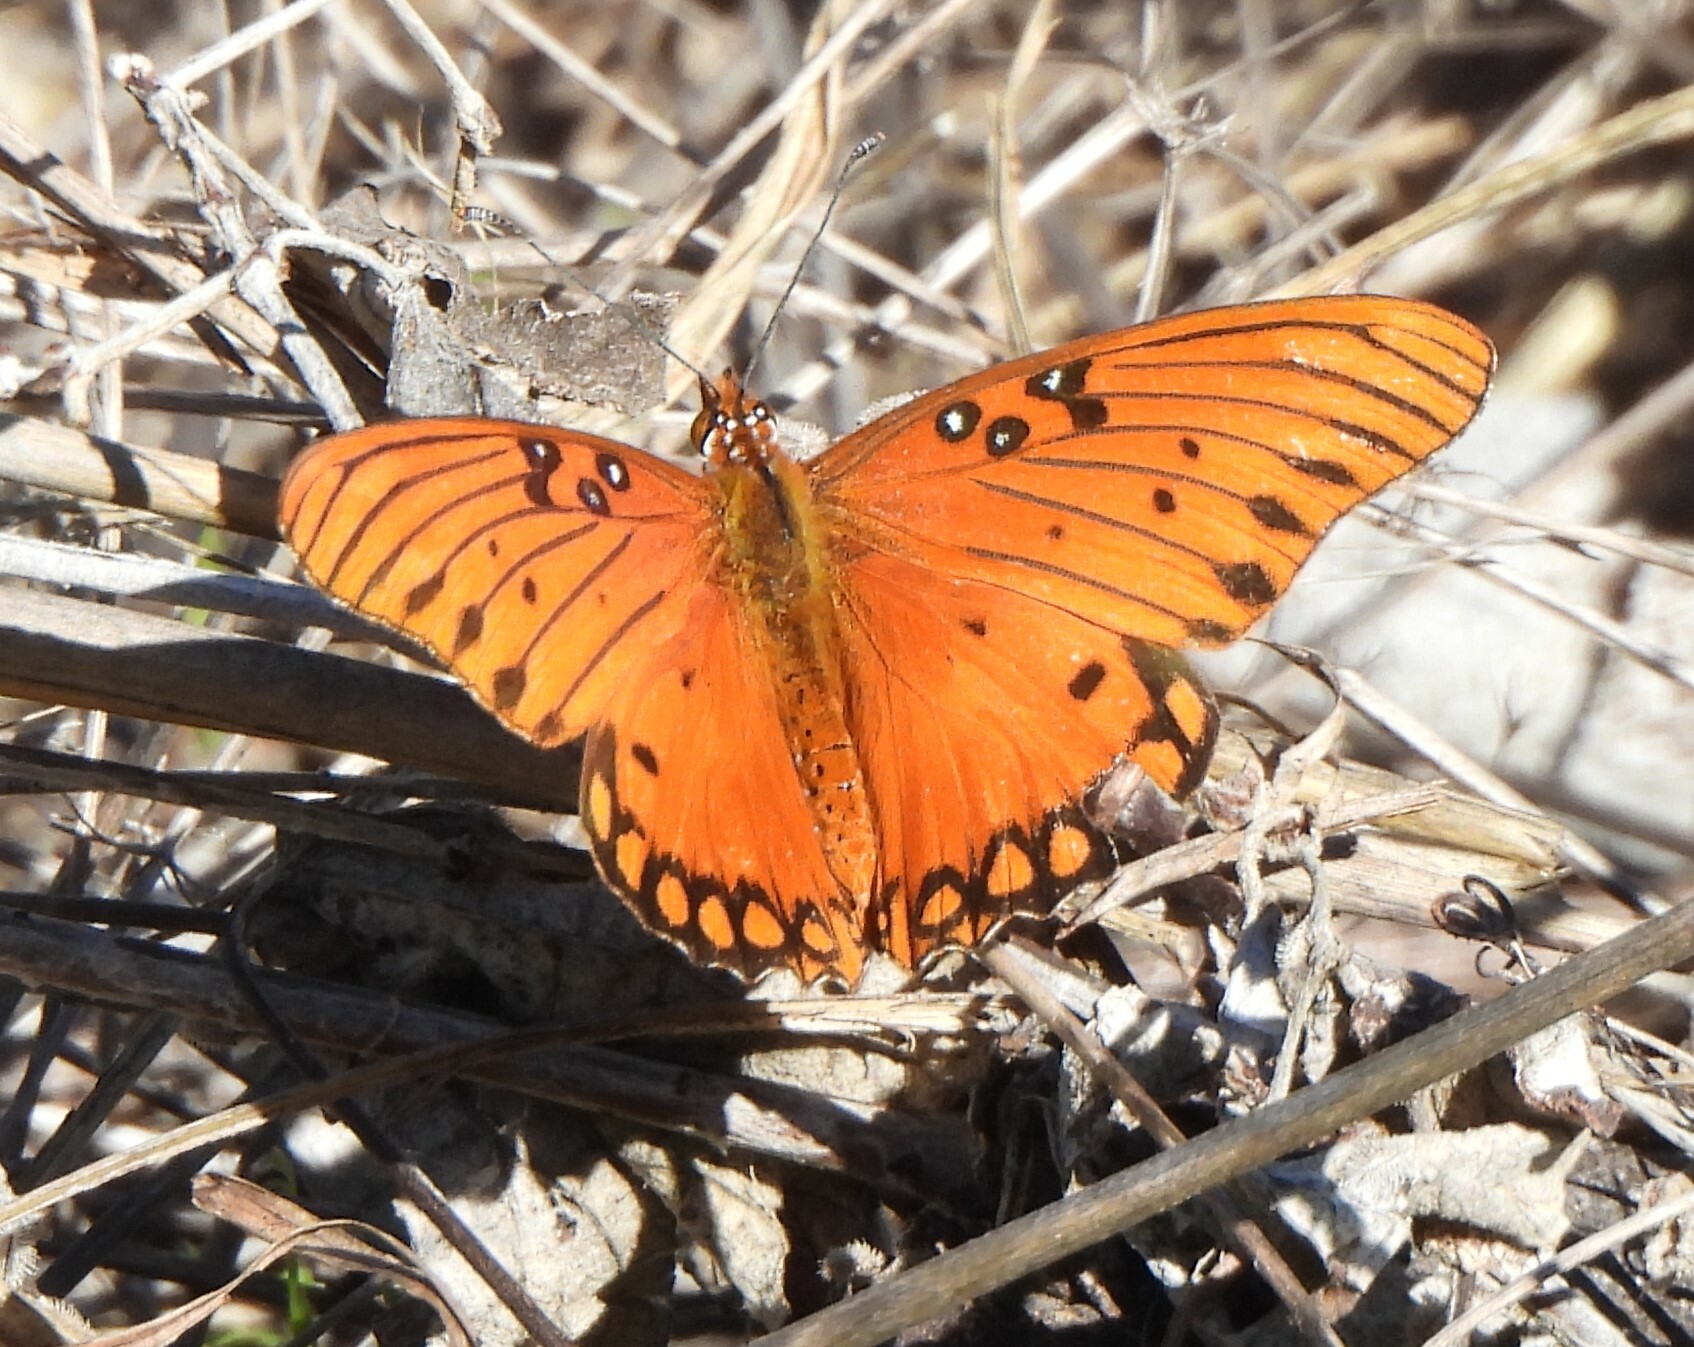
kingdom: Animalia
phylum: Arthropoda
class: Insecta
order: Lepidoptera
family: Nymphalidae
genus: Dione
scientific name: Dione vanillae
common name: Gulf fritillary
